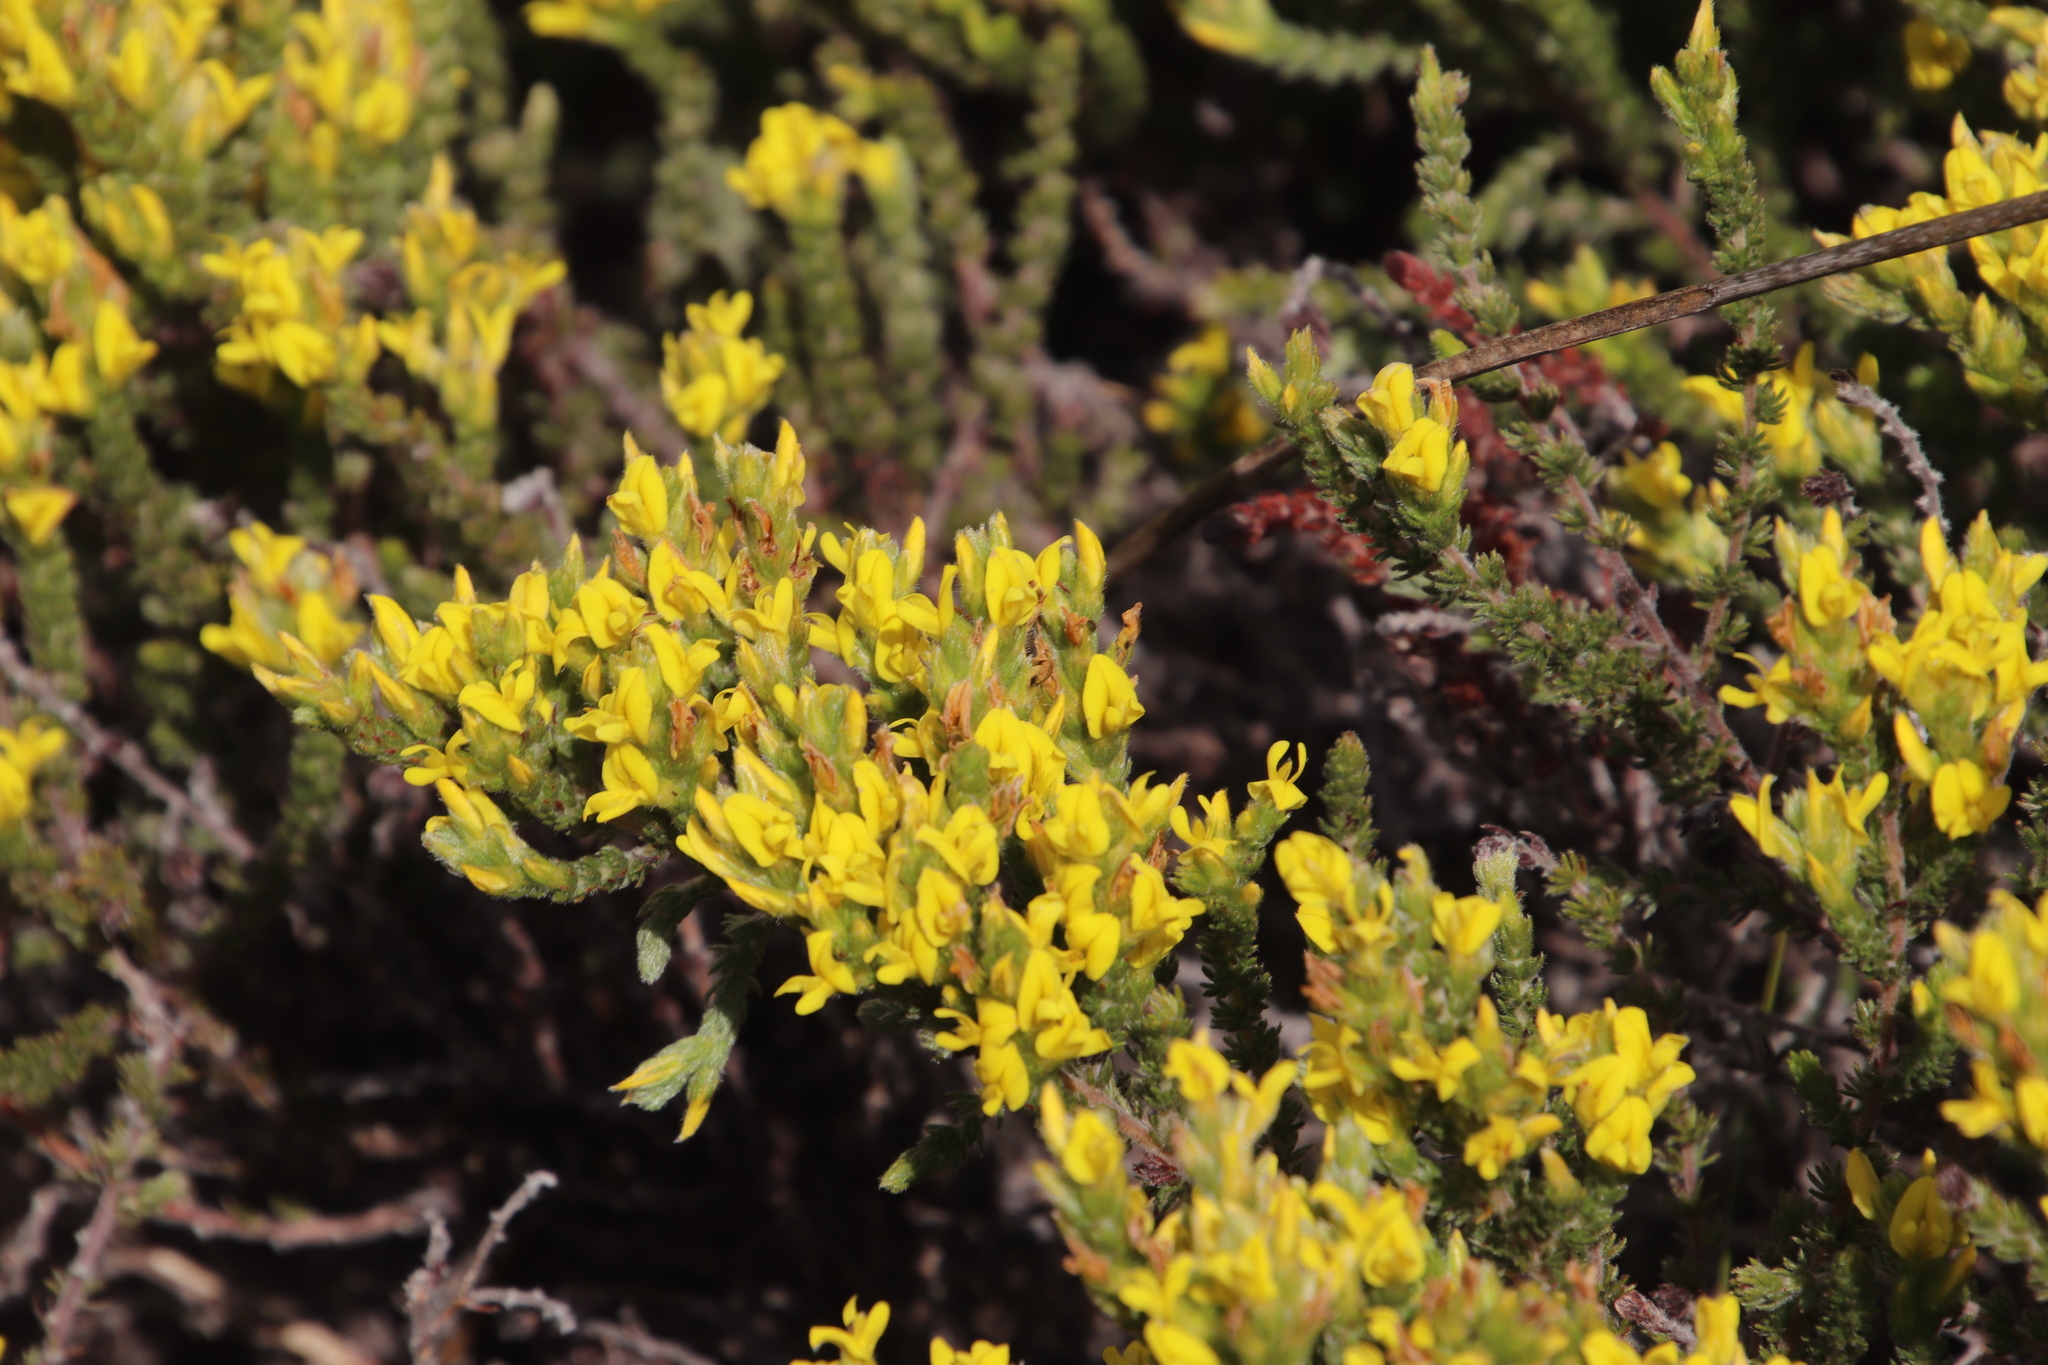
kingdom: Plantae
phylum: Tracheophyta
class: Magnoliopsida
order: Fabales
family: Fabaceae
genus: Aspalathus
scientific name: Aspalathus ericifolia
